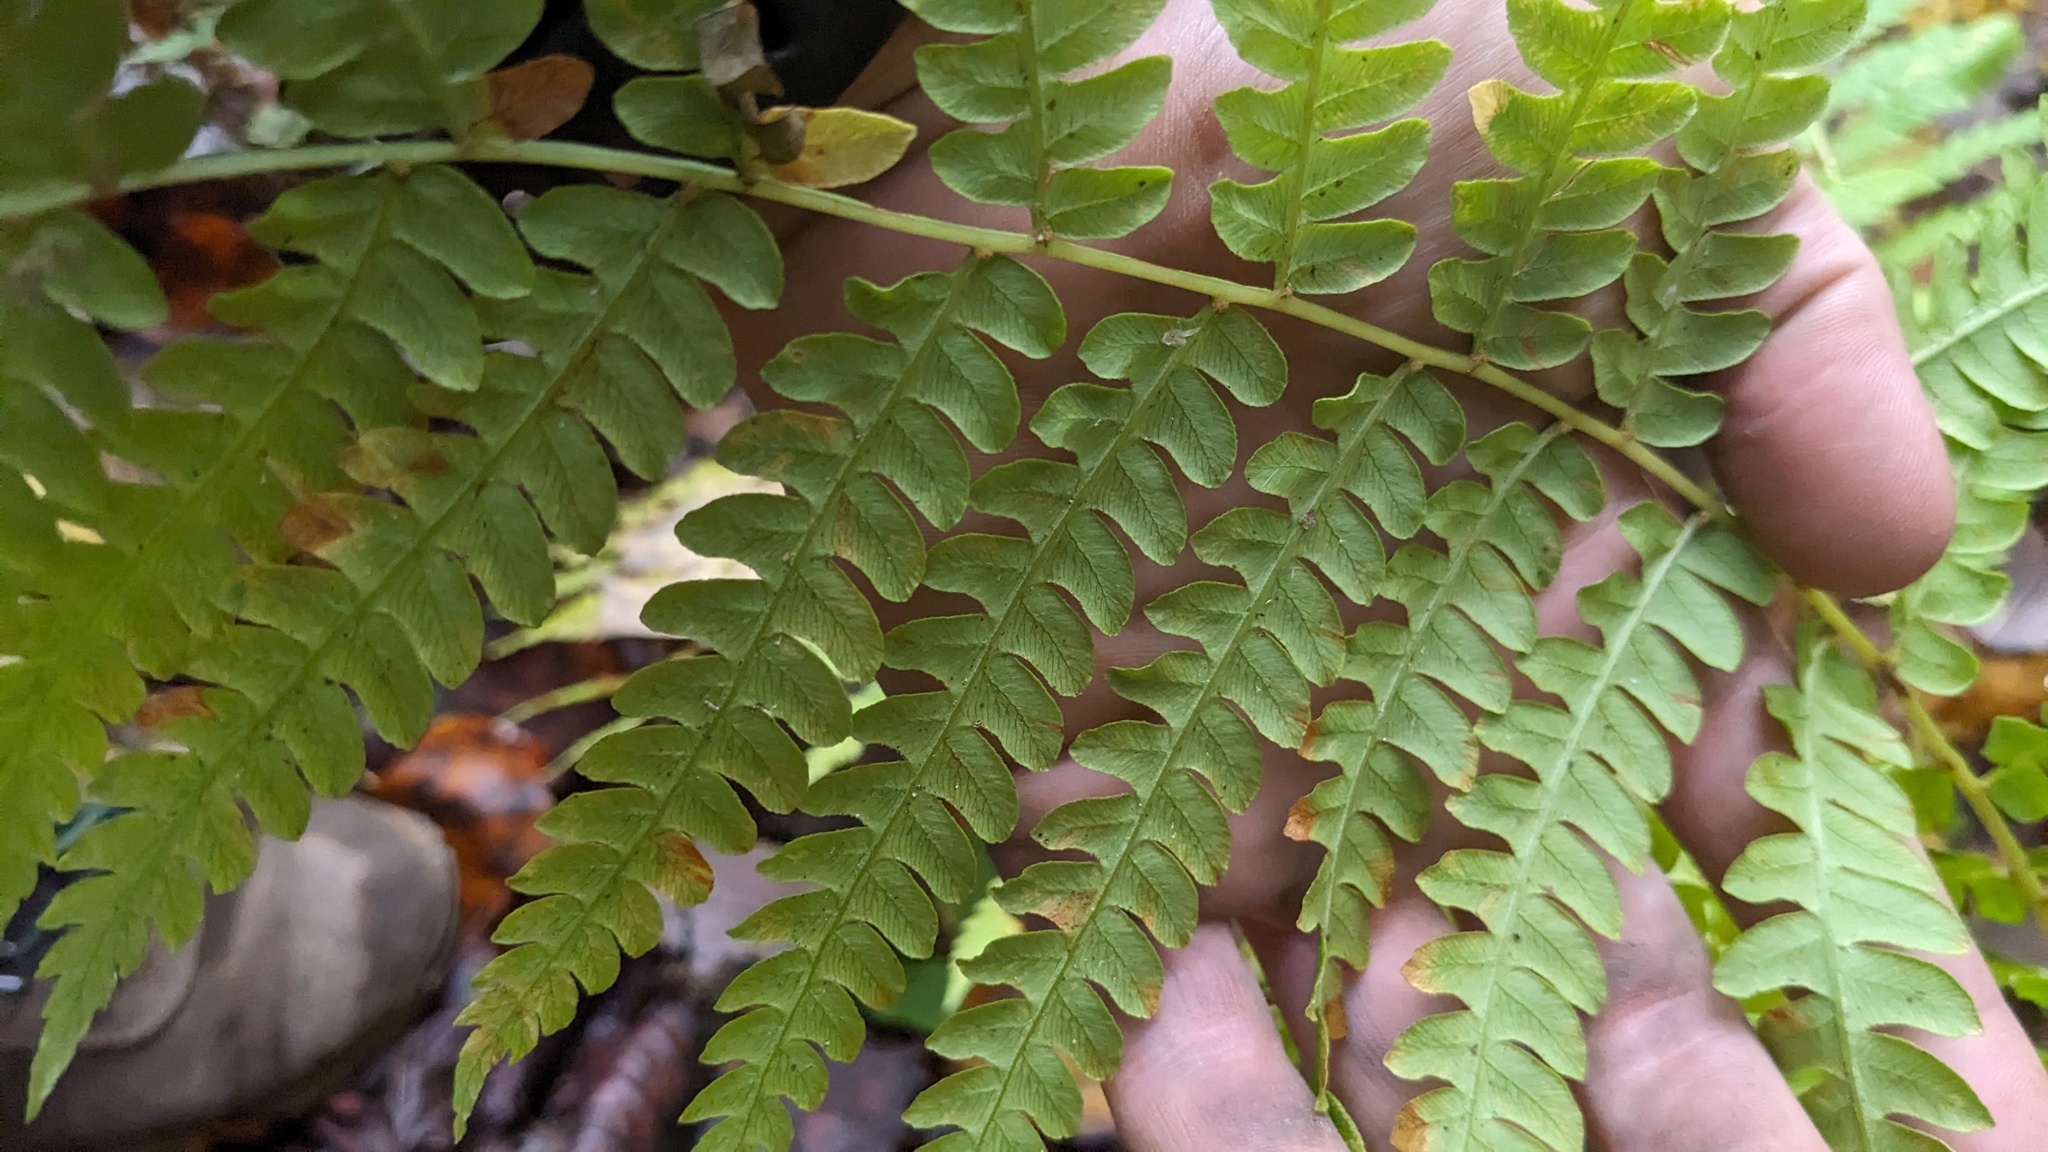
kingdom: Plantae
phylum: Tracheophyta
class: Polypodiopsida
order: Osmundales
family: Osmundaceae
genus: Osmundastrum
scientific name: Osmundastrum cinnamomeum
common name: Cinnamon fern
